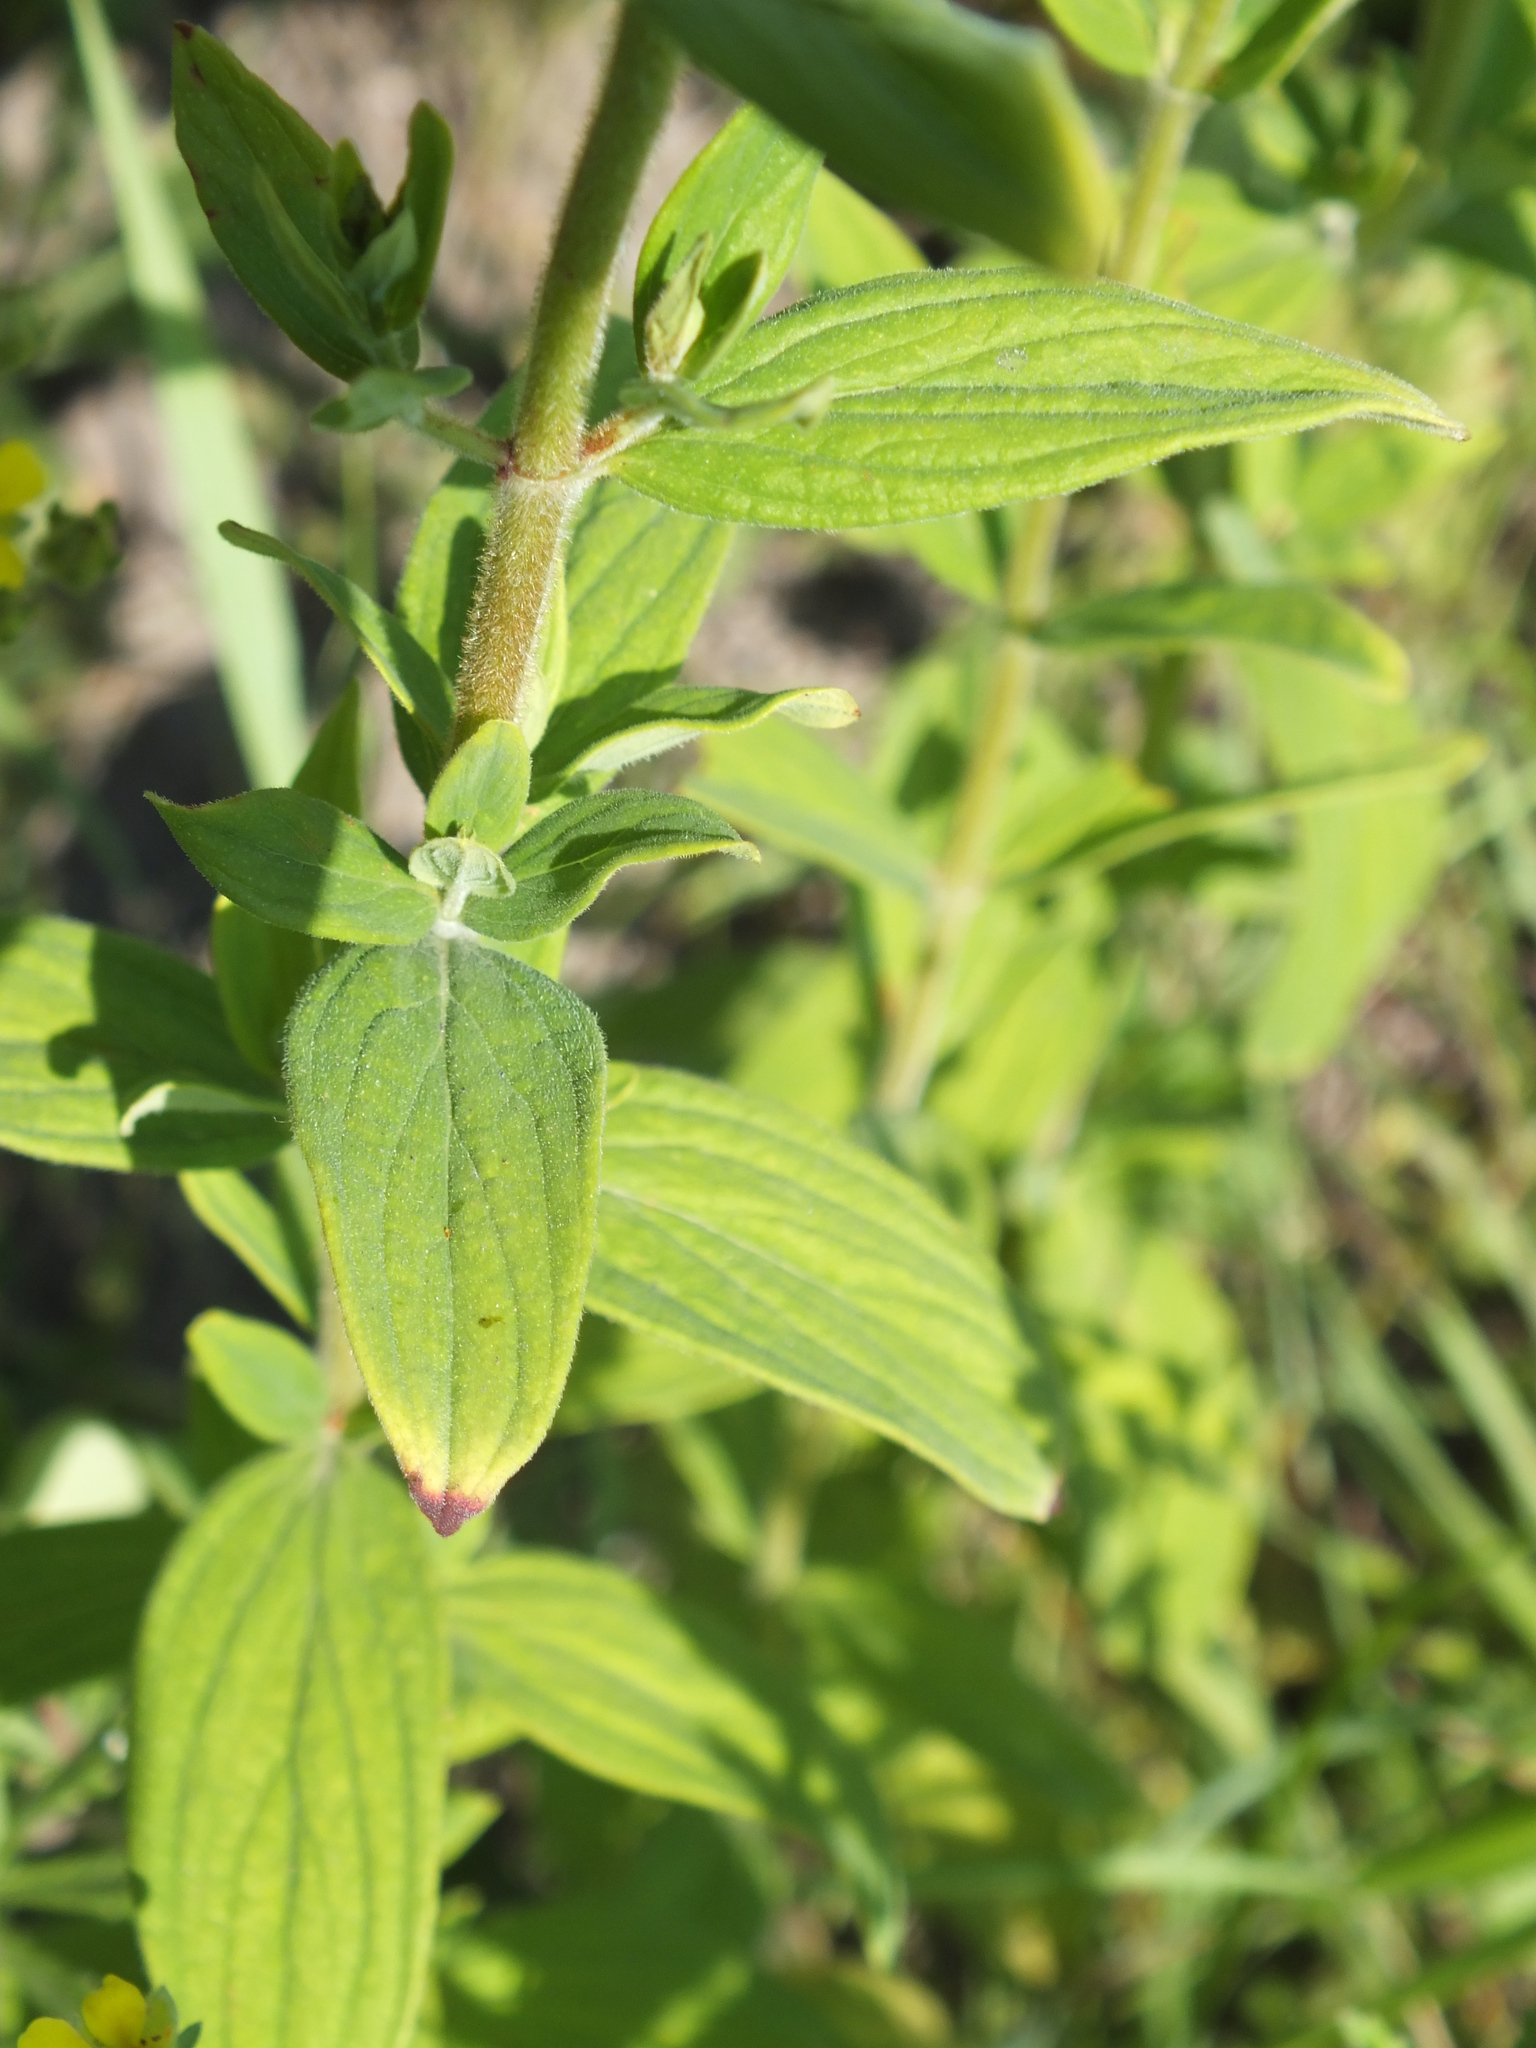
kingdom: Plantae
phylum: Tracheophyta
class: Magnoliopsida
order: Malpighiales
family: Hypericaceae
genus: Hypericum
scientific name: Hypericum hirsutum
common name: Hairy st. john's-wort
